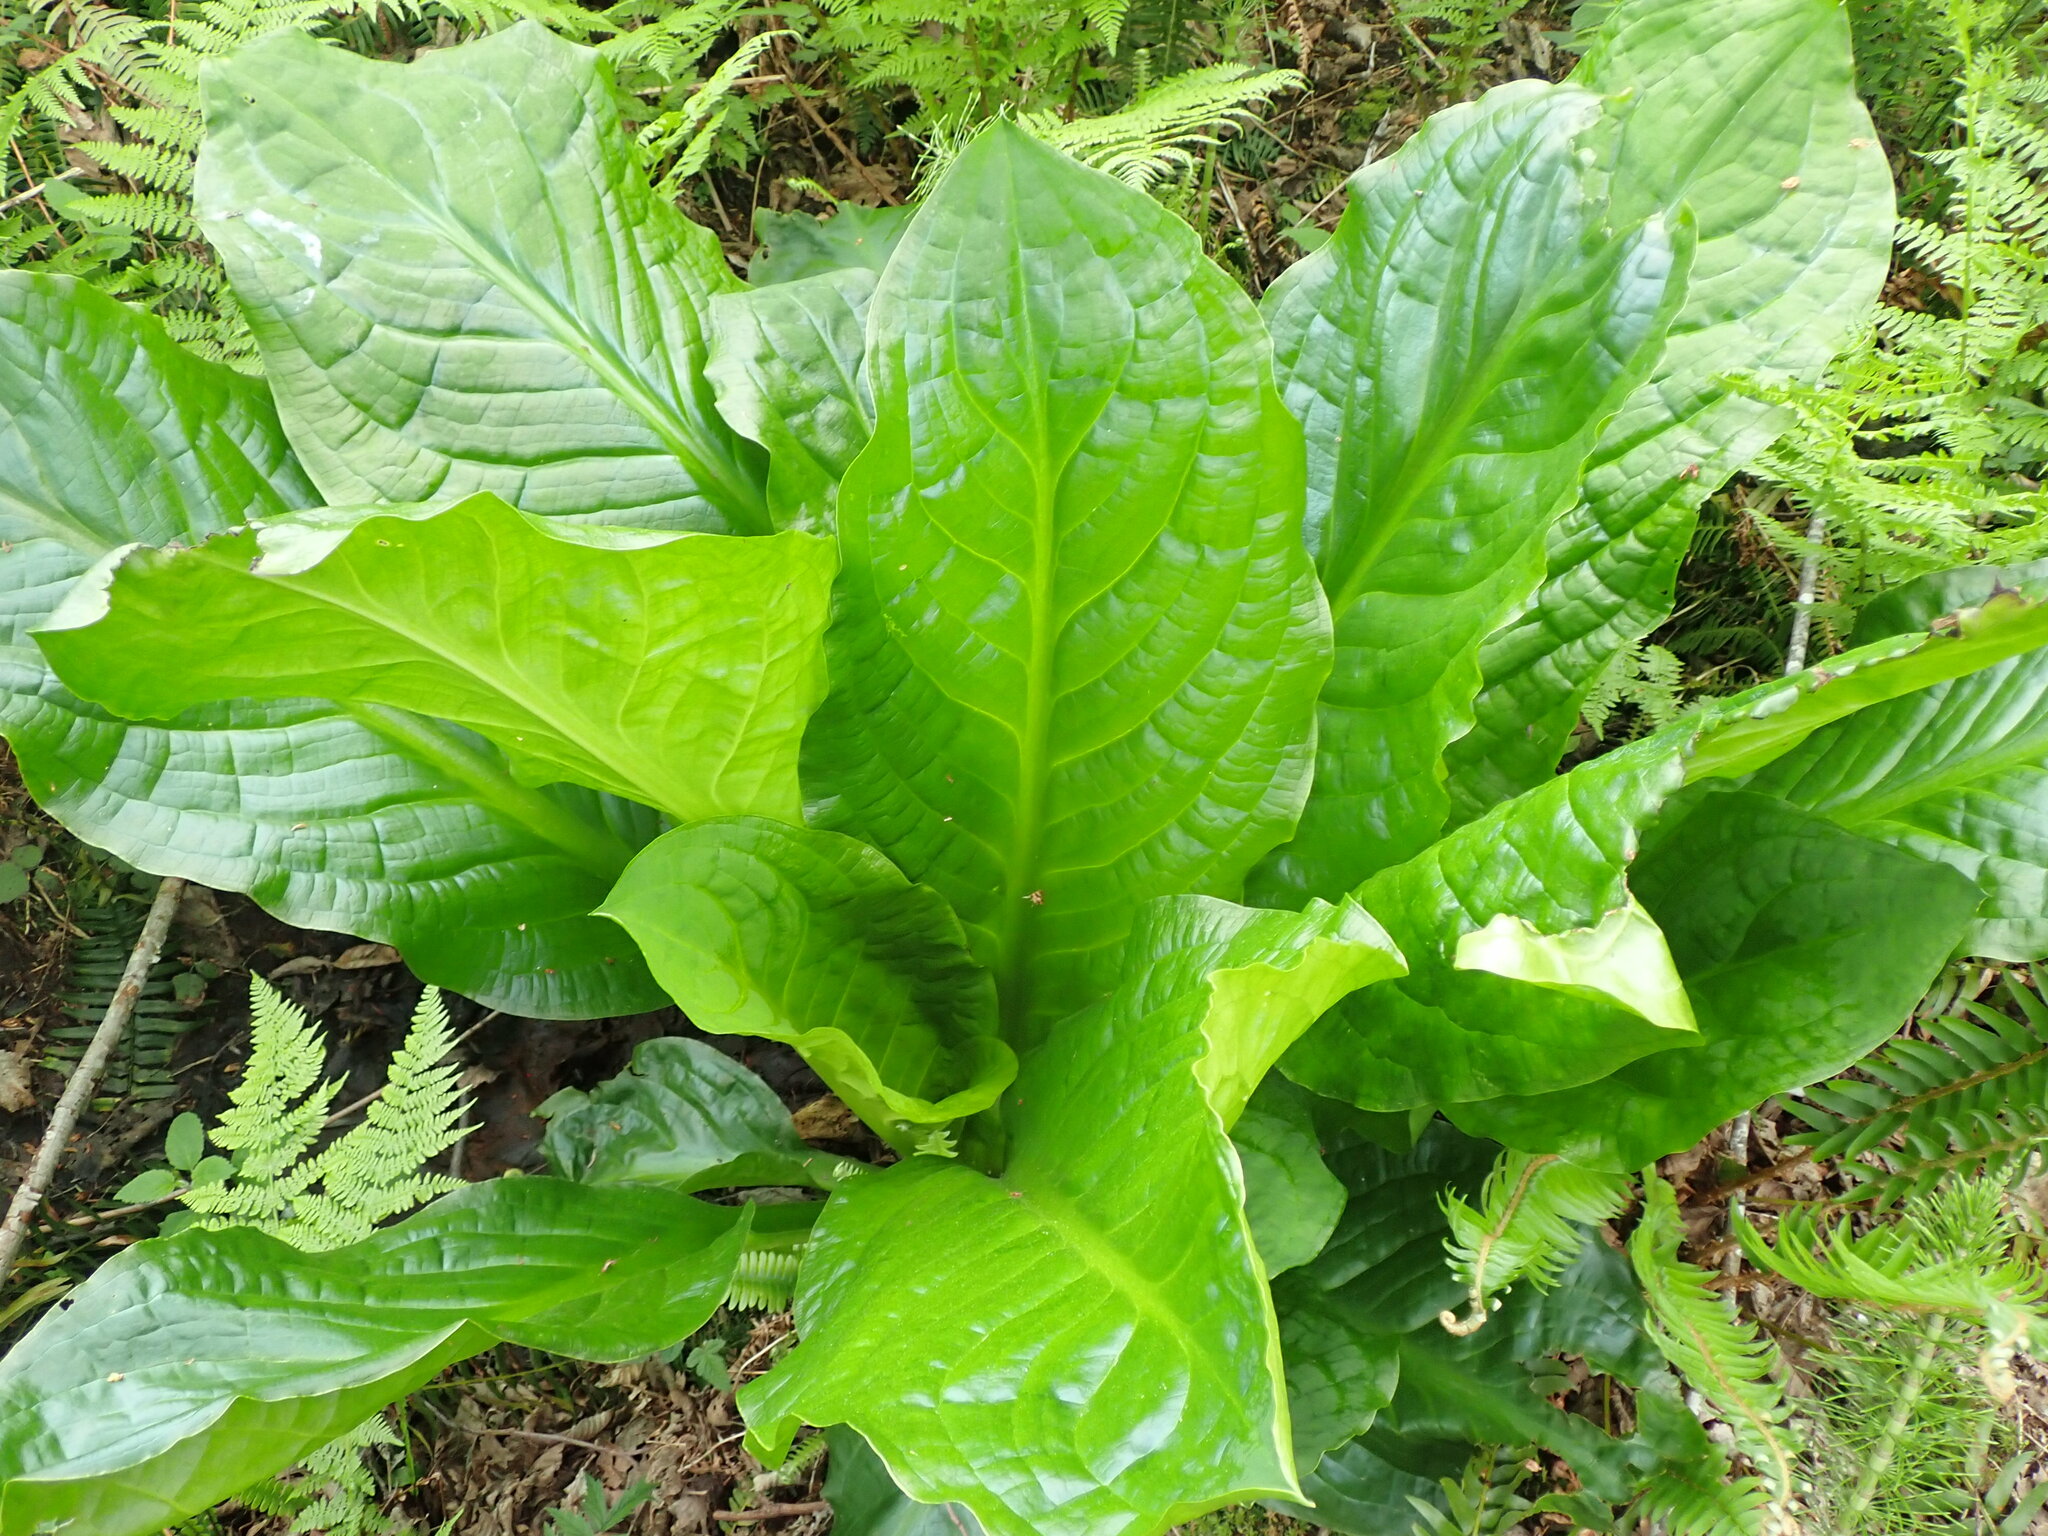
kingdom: Plantae
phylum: Tracheophyta
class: Liliopsida
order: Alismatales
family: Araceae
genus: Lysichiton
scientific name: Lysichiton americanus
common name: American skunk cabbage
